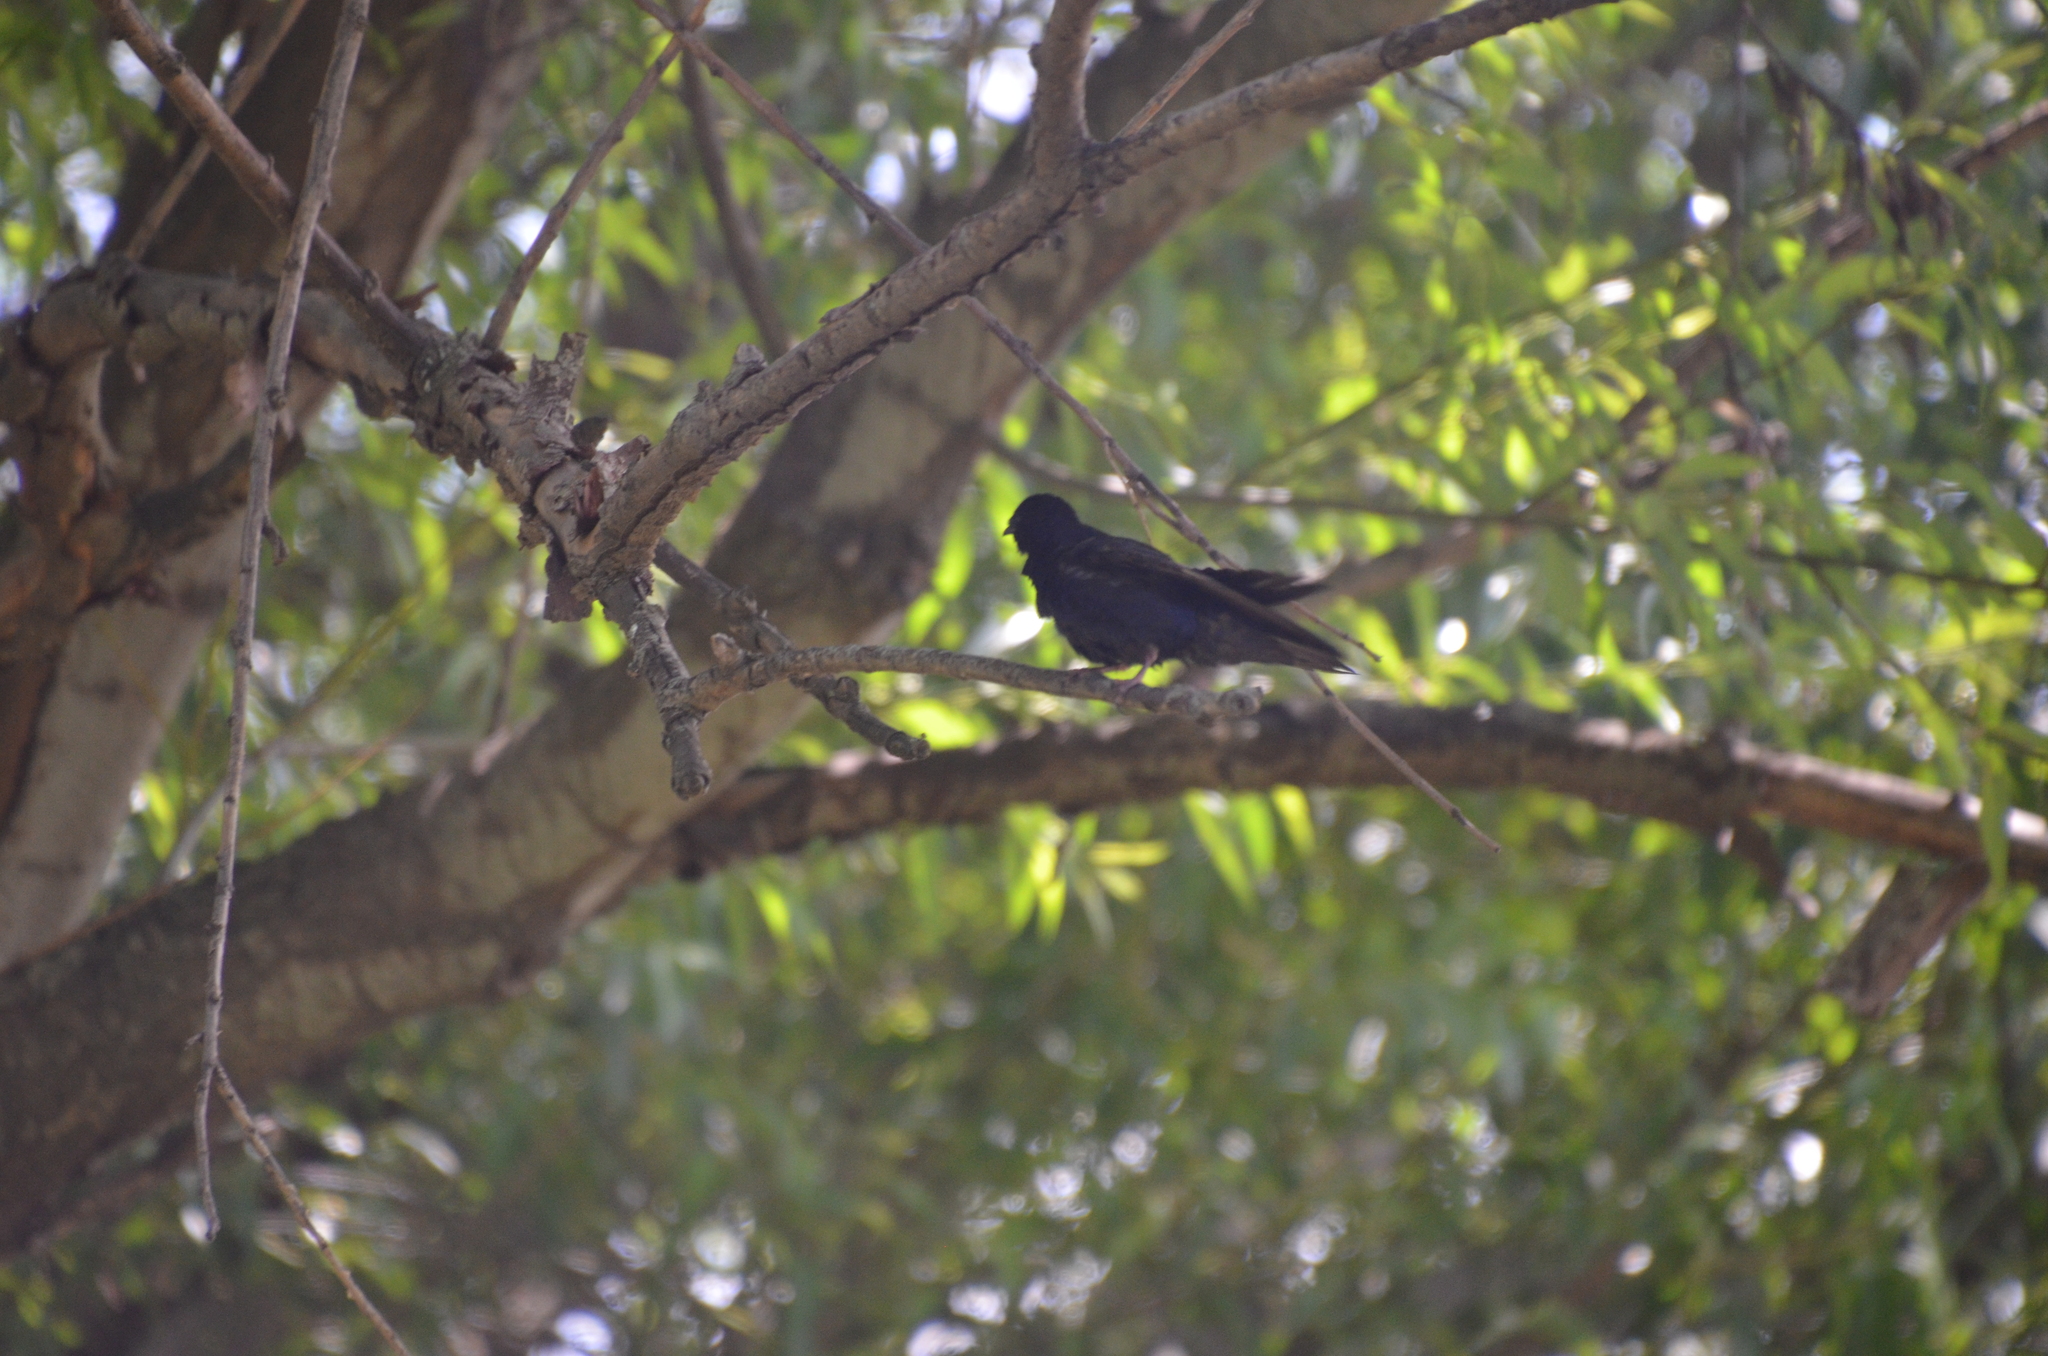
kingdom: Animalia
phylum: Chordata
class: Aves
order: Passeriformes
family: Hirundinidae
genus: Progne
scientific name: Progne elegans
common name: Southern martin
